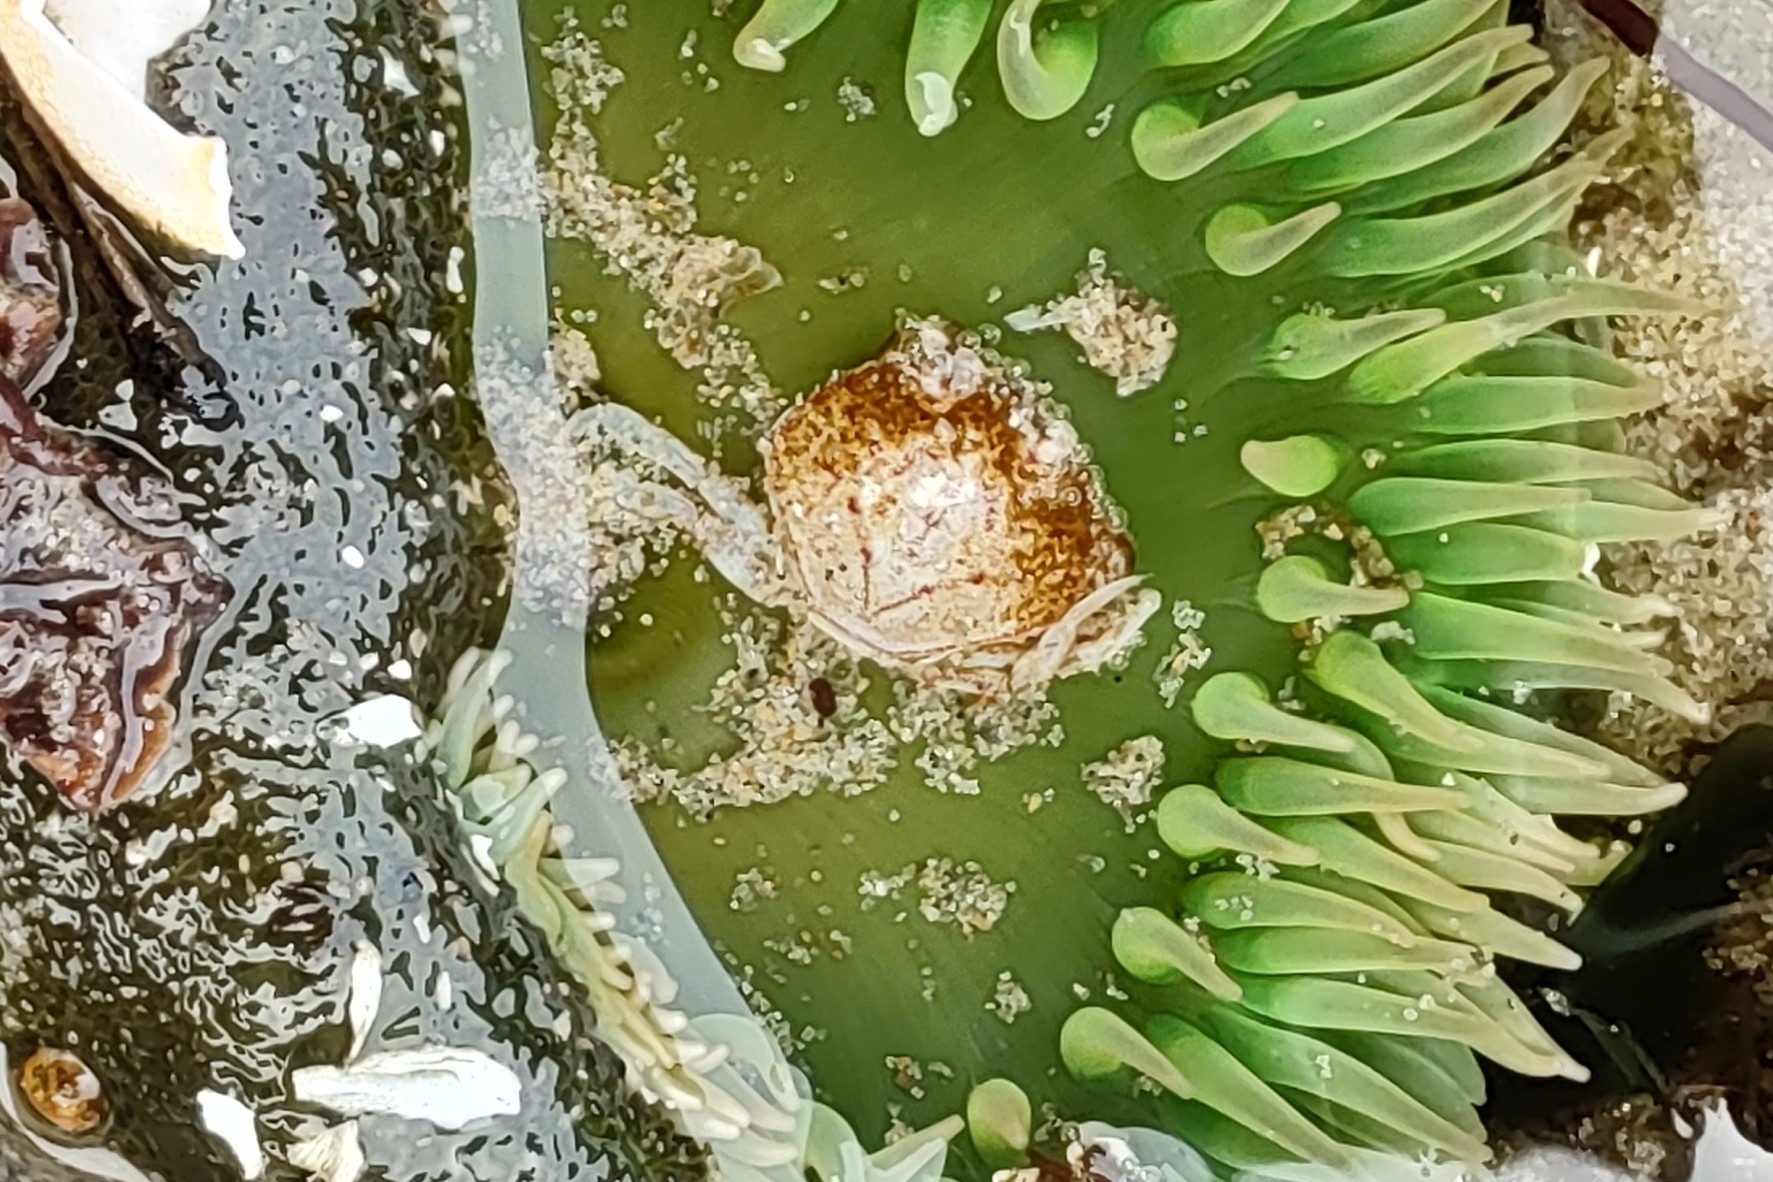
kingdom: Animalia
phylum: Arthropoda
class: Malacostraca
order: Decapoda
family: Cancridae
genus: Metacarcinus
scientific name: Metacarcinus magister
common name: Californian crab
